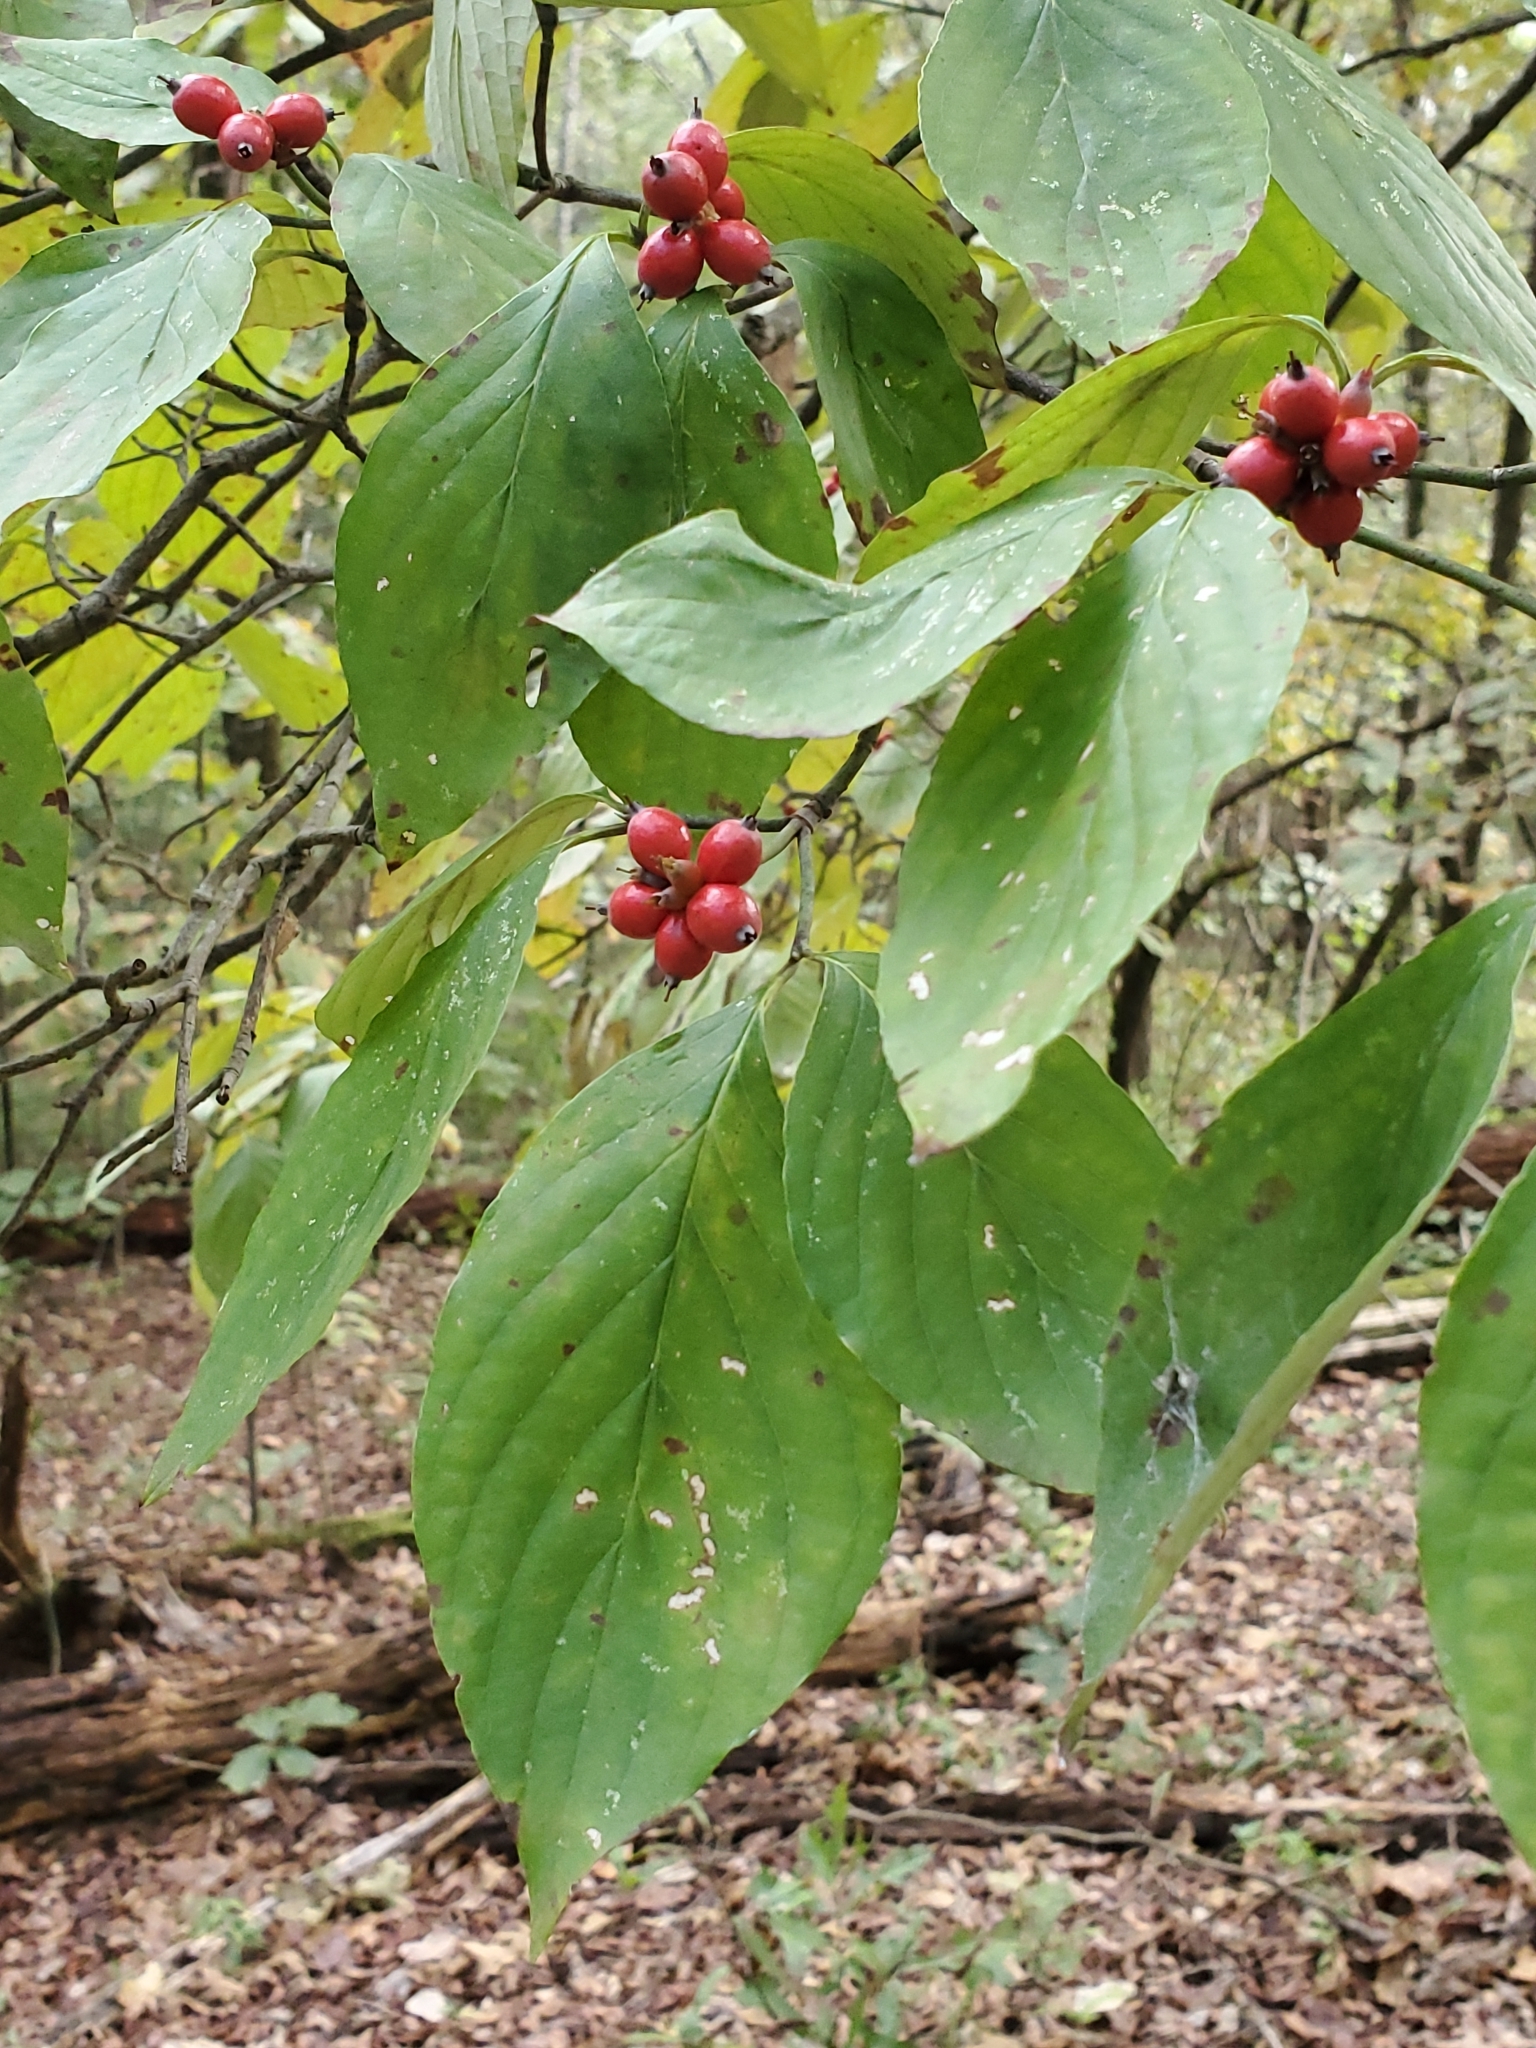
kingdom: Plantae
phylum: Tracheophyta
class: Magnoliopsida
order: Cornales
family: Cornaceae
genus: Cornus
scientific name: Cornus florida
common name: Flowering dogwood
